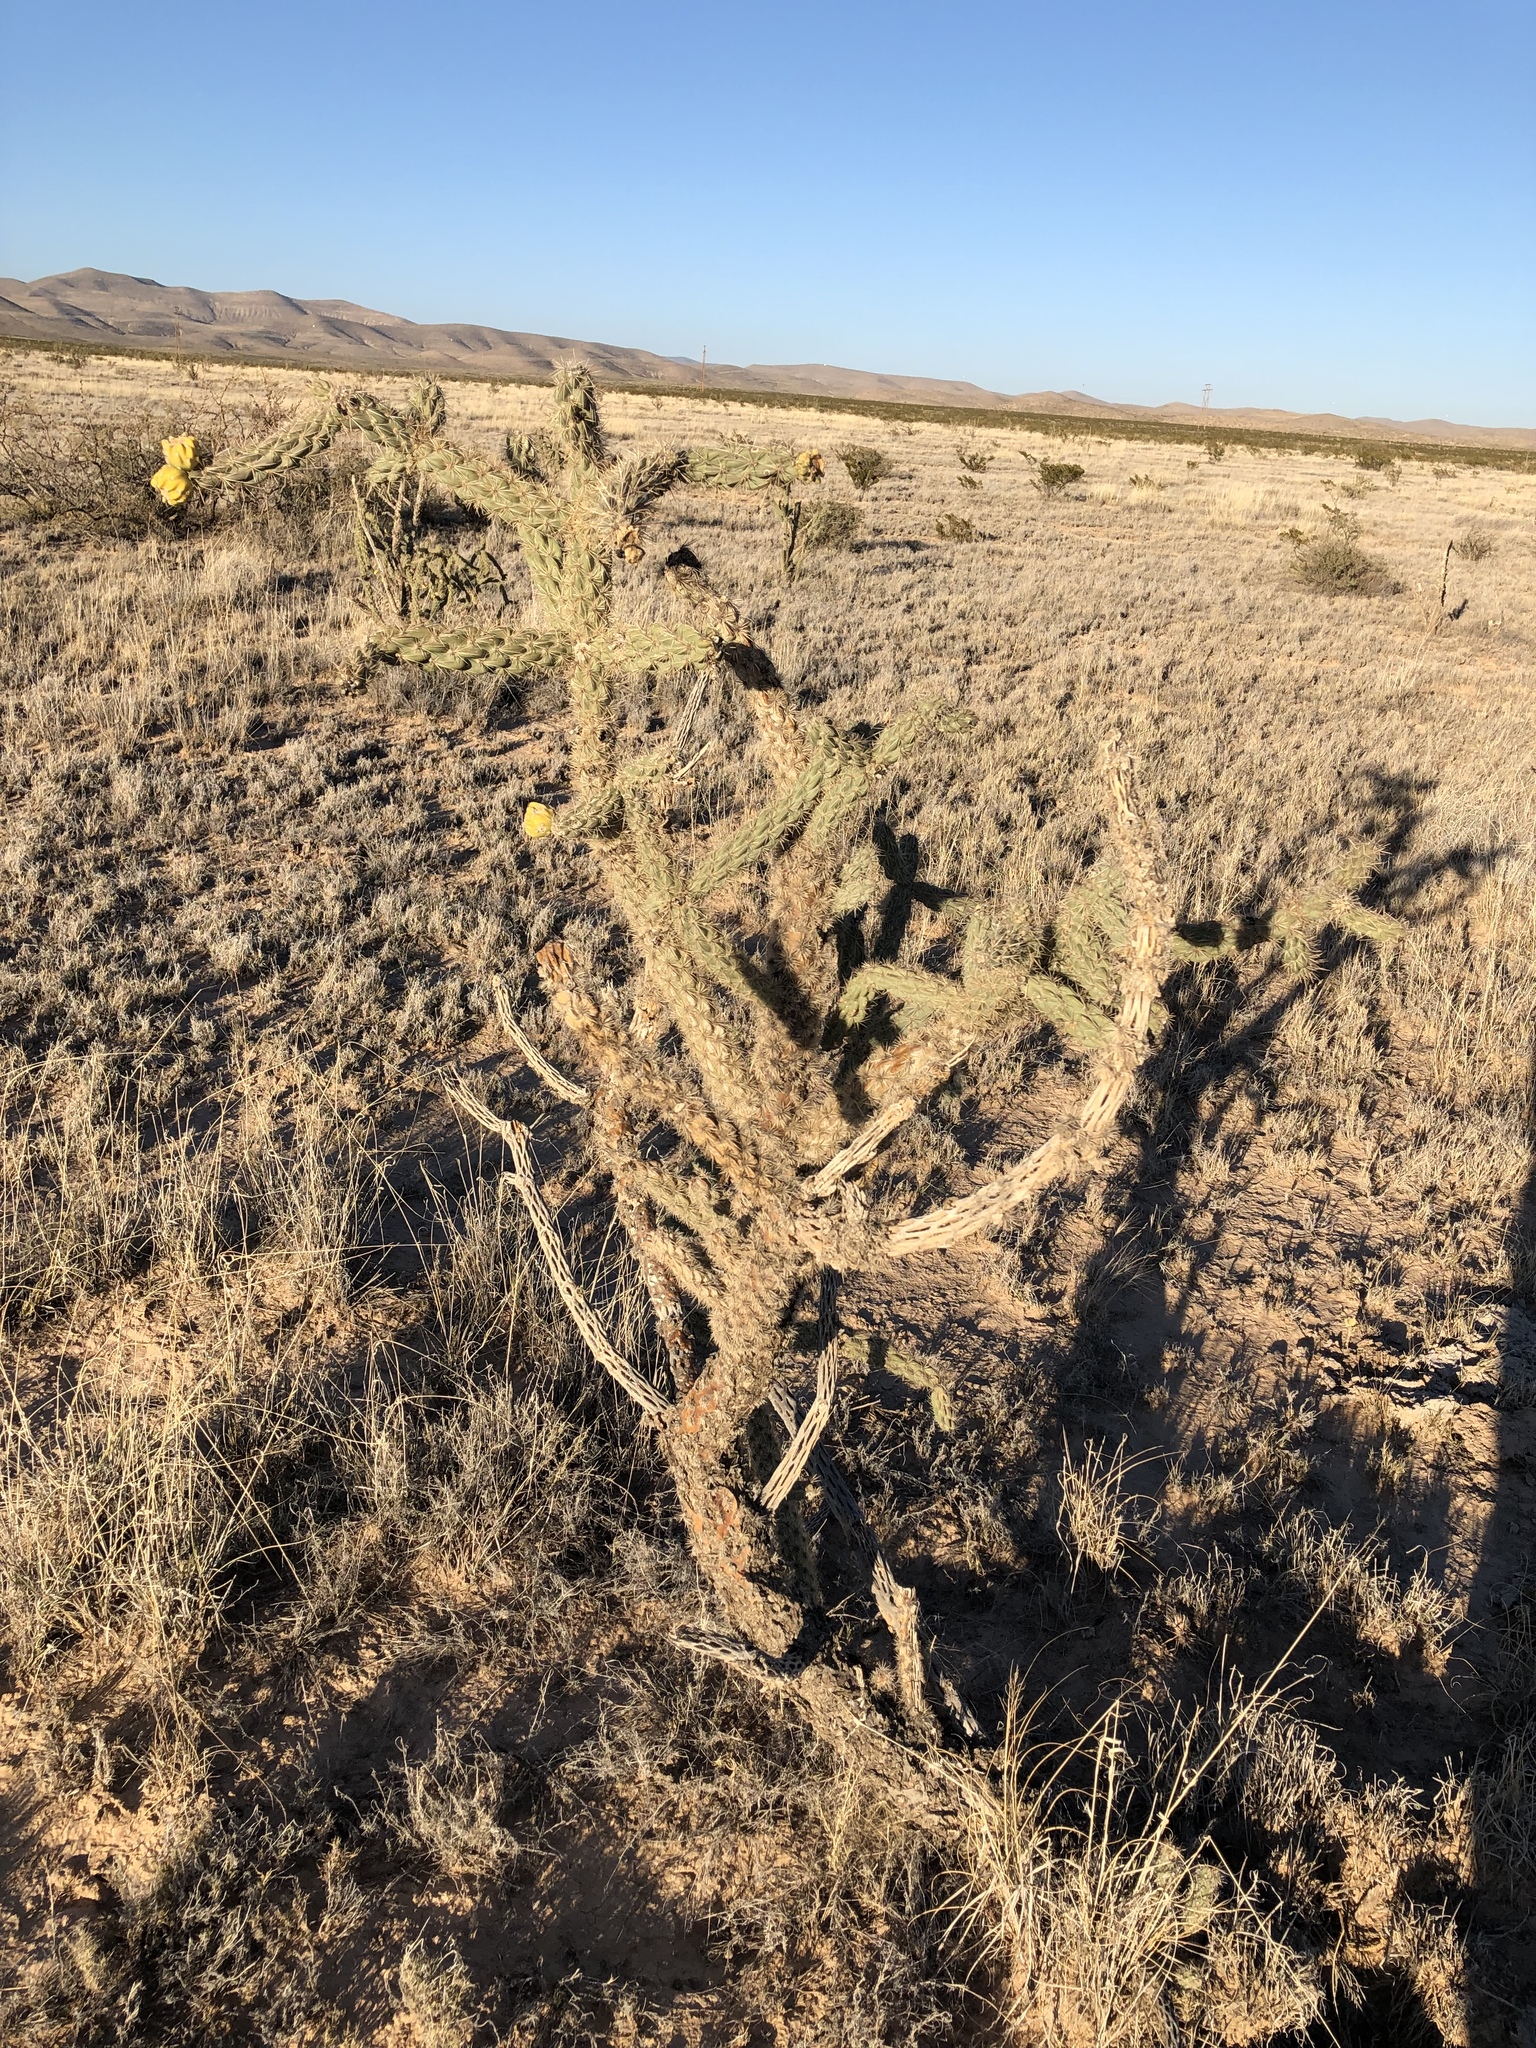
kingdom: Plantae
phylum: Tracheophyta
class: Magnoliopsida
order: Caryophyllales
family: Cactaceae
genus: Cylindropuntia
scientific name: Cylindropuntia imbricata
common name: Candelabrum cactus
